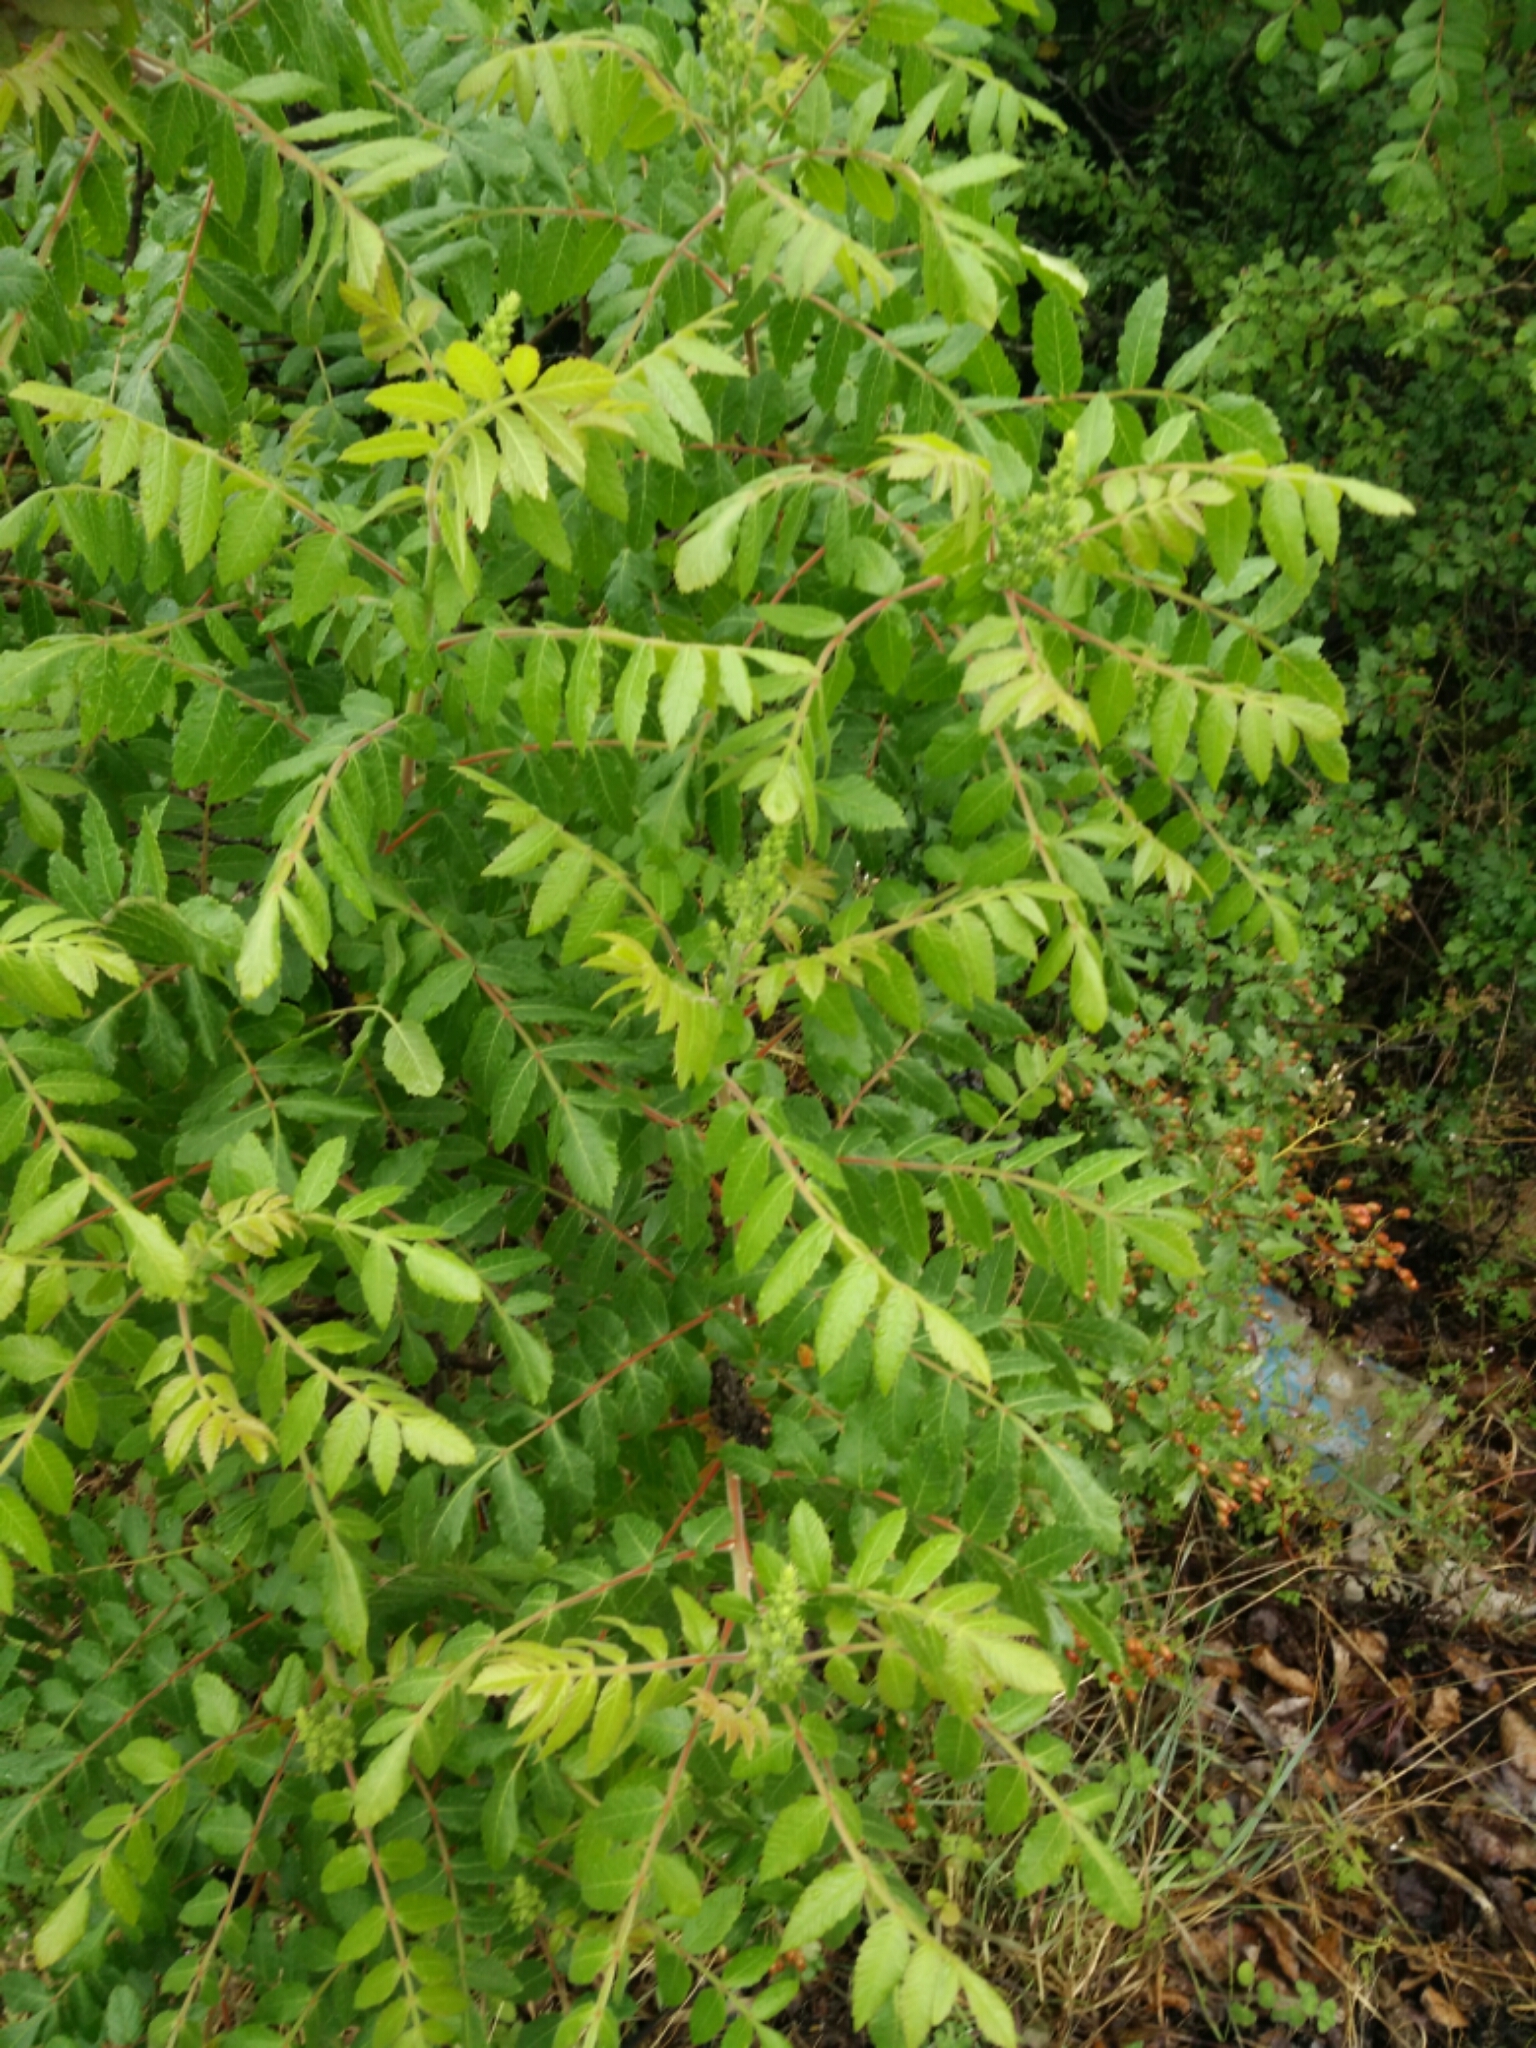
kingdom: Plantae
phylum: Tracheophyta
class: Magnoliopsida
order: Sapindales
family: Anacardiaceae
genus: Rhus
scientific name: Rhus coriaria
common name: Tanner's sumach
